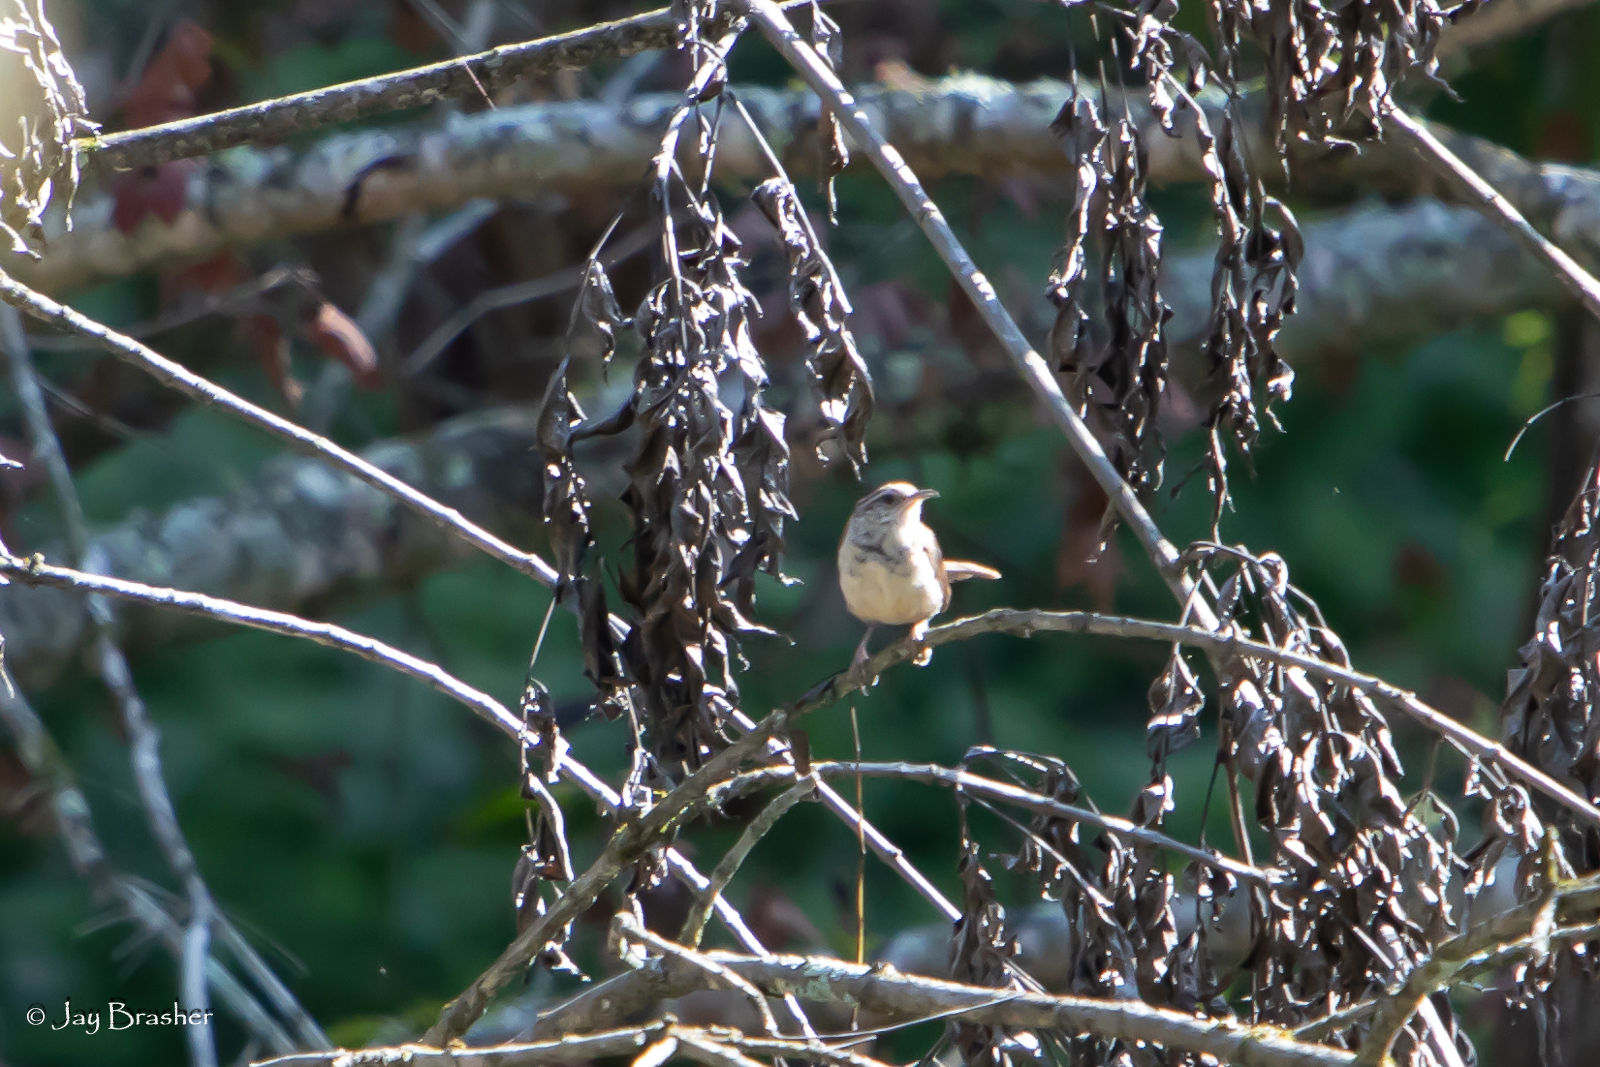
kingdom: Animalia
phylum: Chordata
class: Aves
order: Passeriformes
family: Troglodytidae
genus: Thryothorus
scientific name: Thryothorus ludovicianus
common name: Carolina wren
